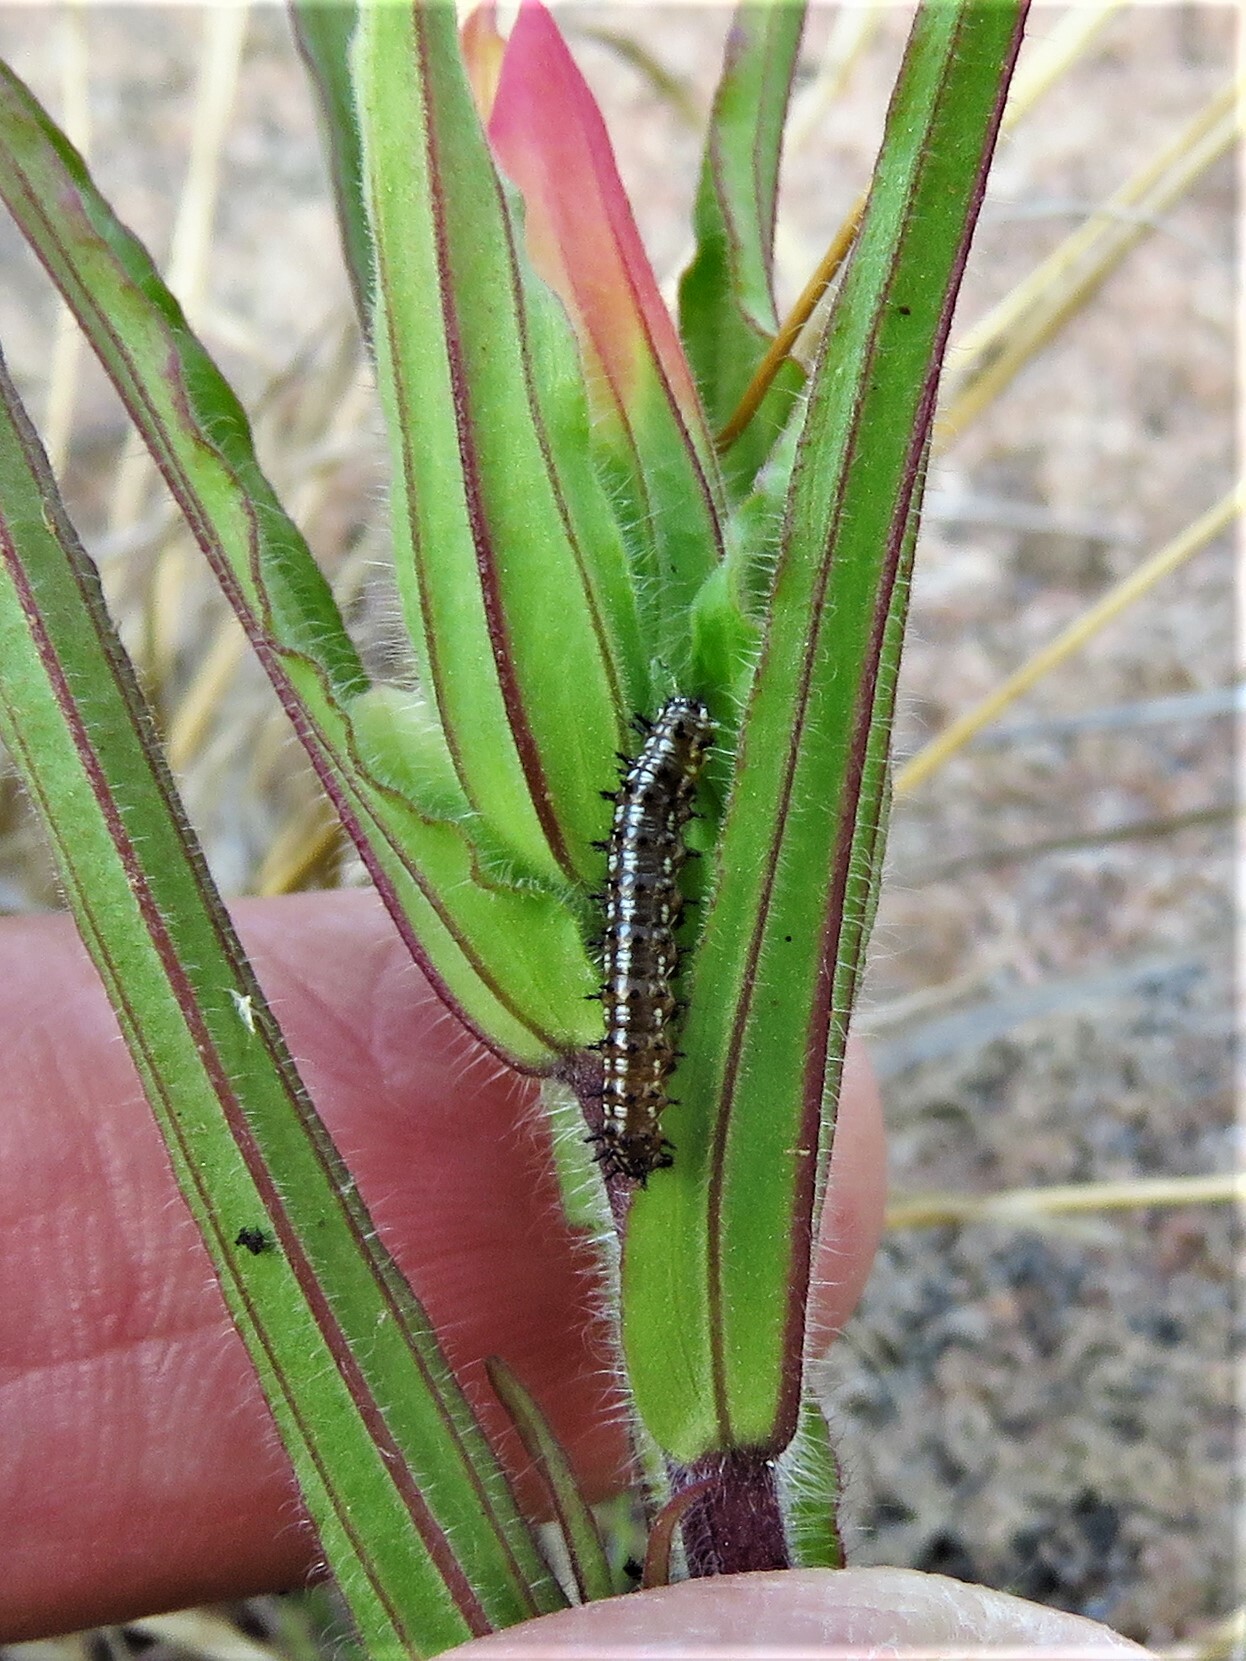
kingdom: Animalia
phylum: Arthropoda
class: Insecta
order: Lepidoptera
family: Nymphalidae
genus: Junonia
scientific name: Junonia coenia
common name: Common buckeye
